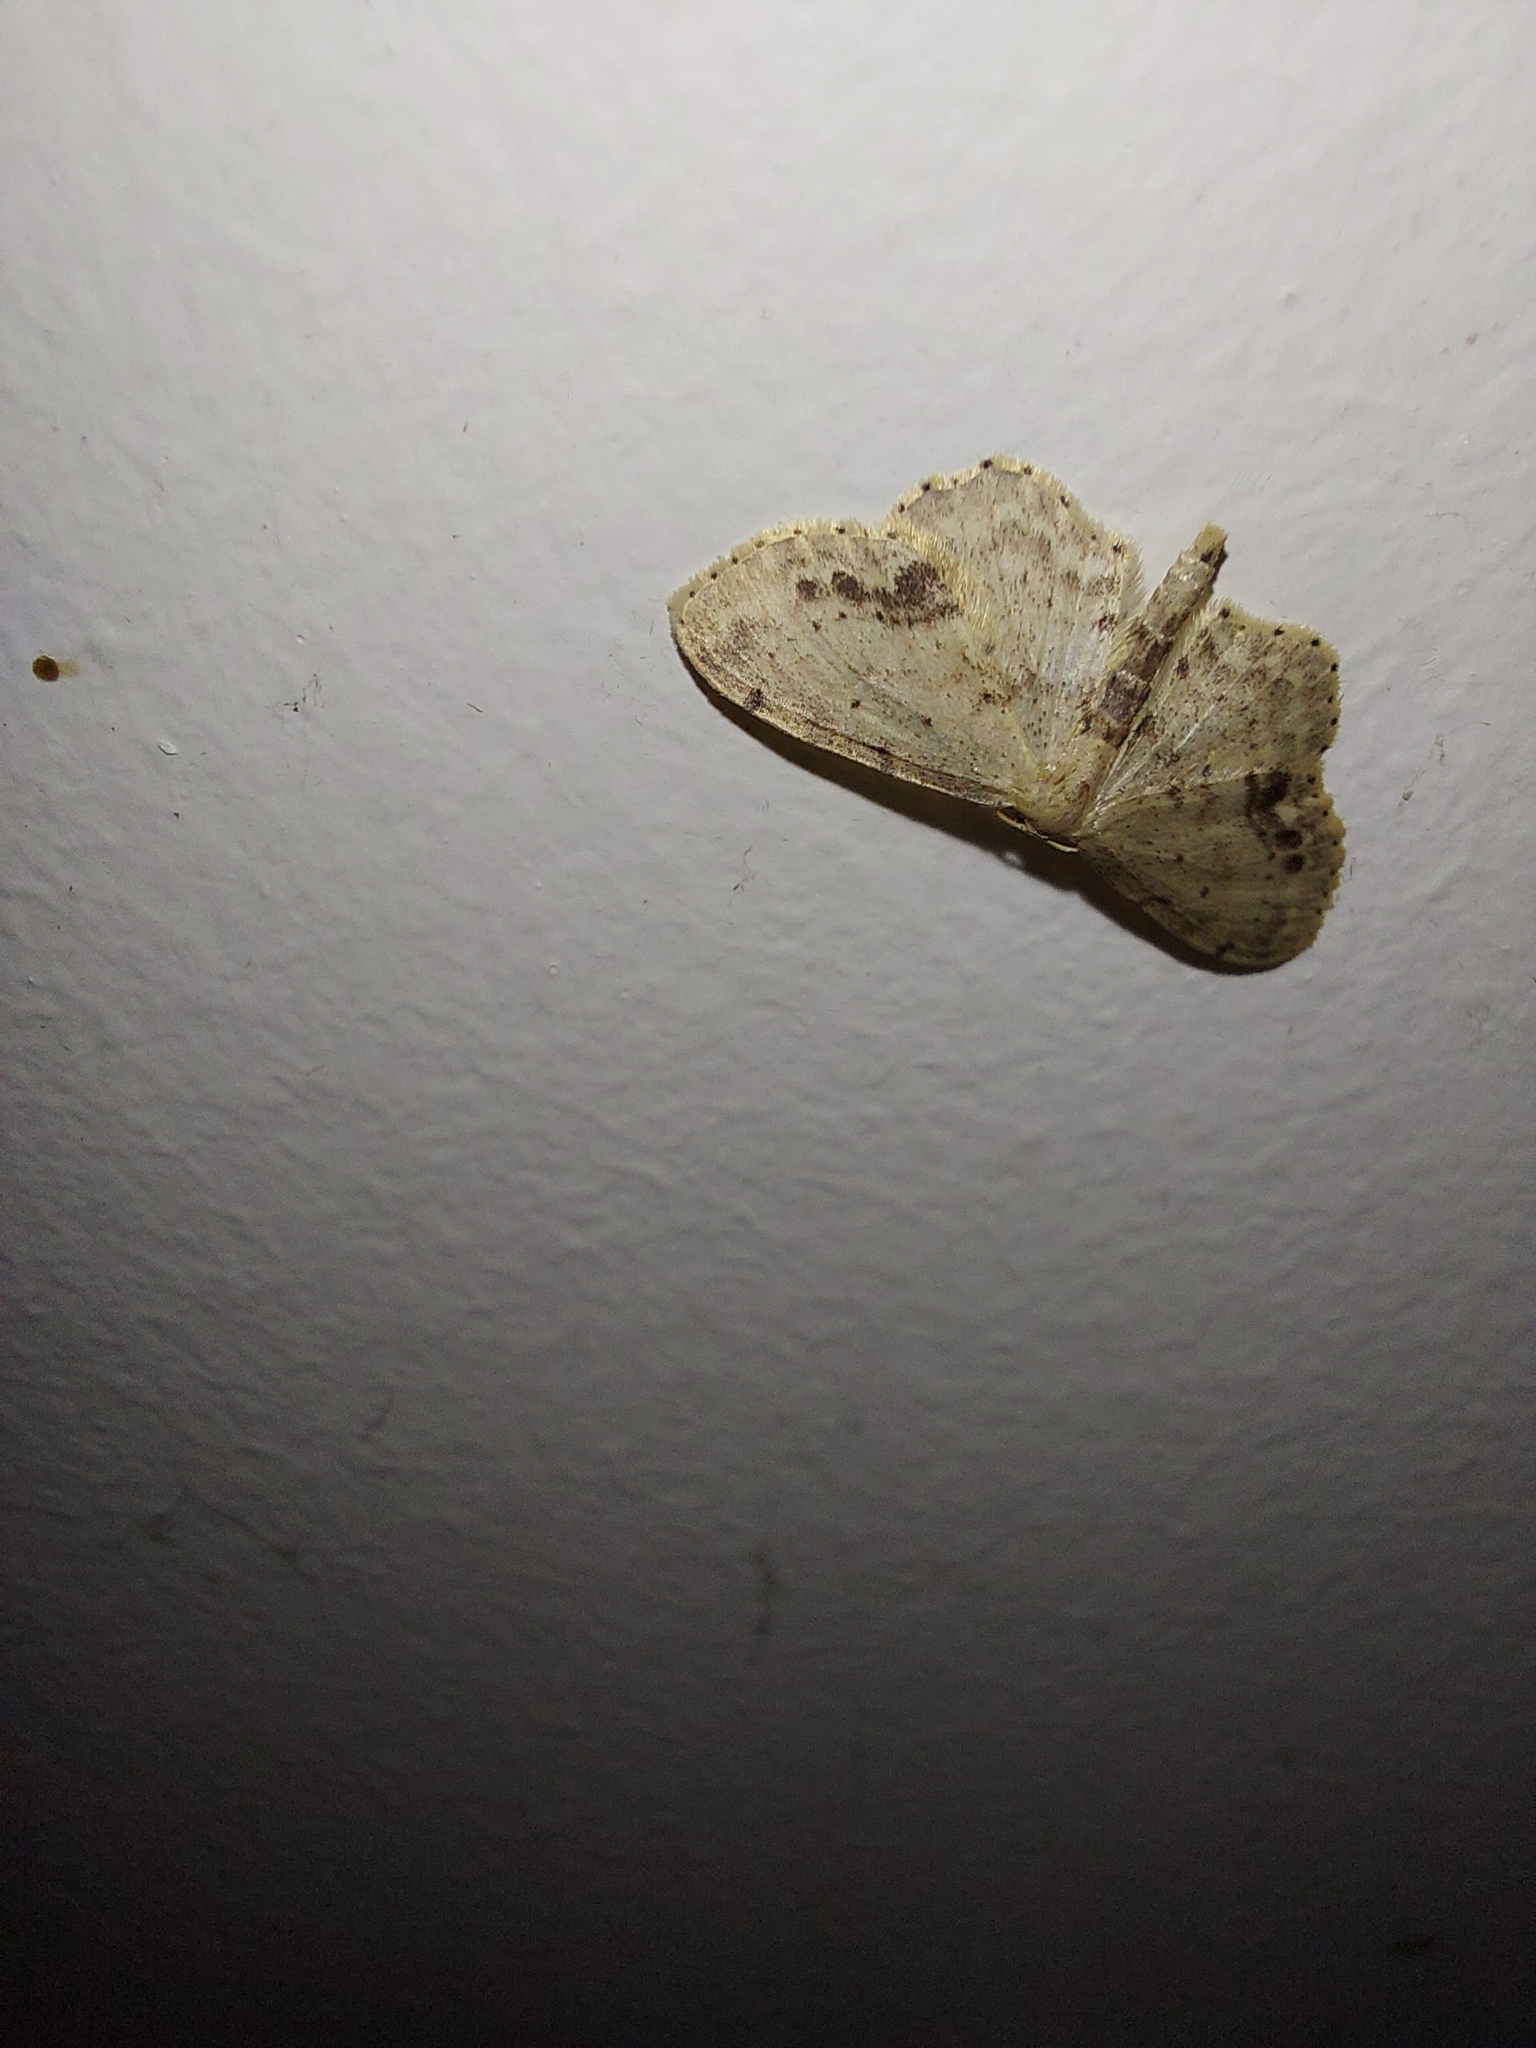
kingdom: Animalia
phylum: Arthropoda
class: Insecta
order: Lepidoptera
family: Geometridae
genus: Idaea
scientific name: Idaea dimidiata
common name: Single-dotted wave
